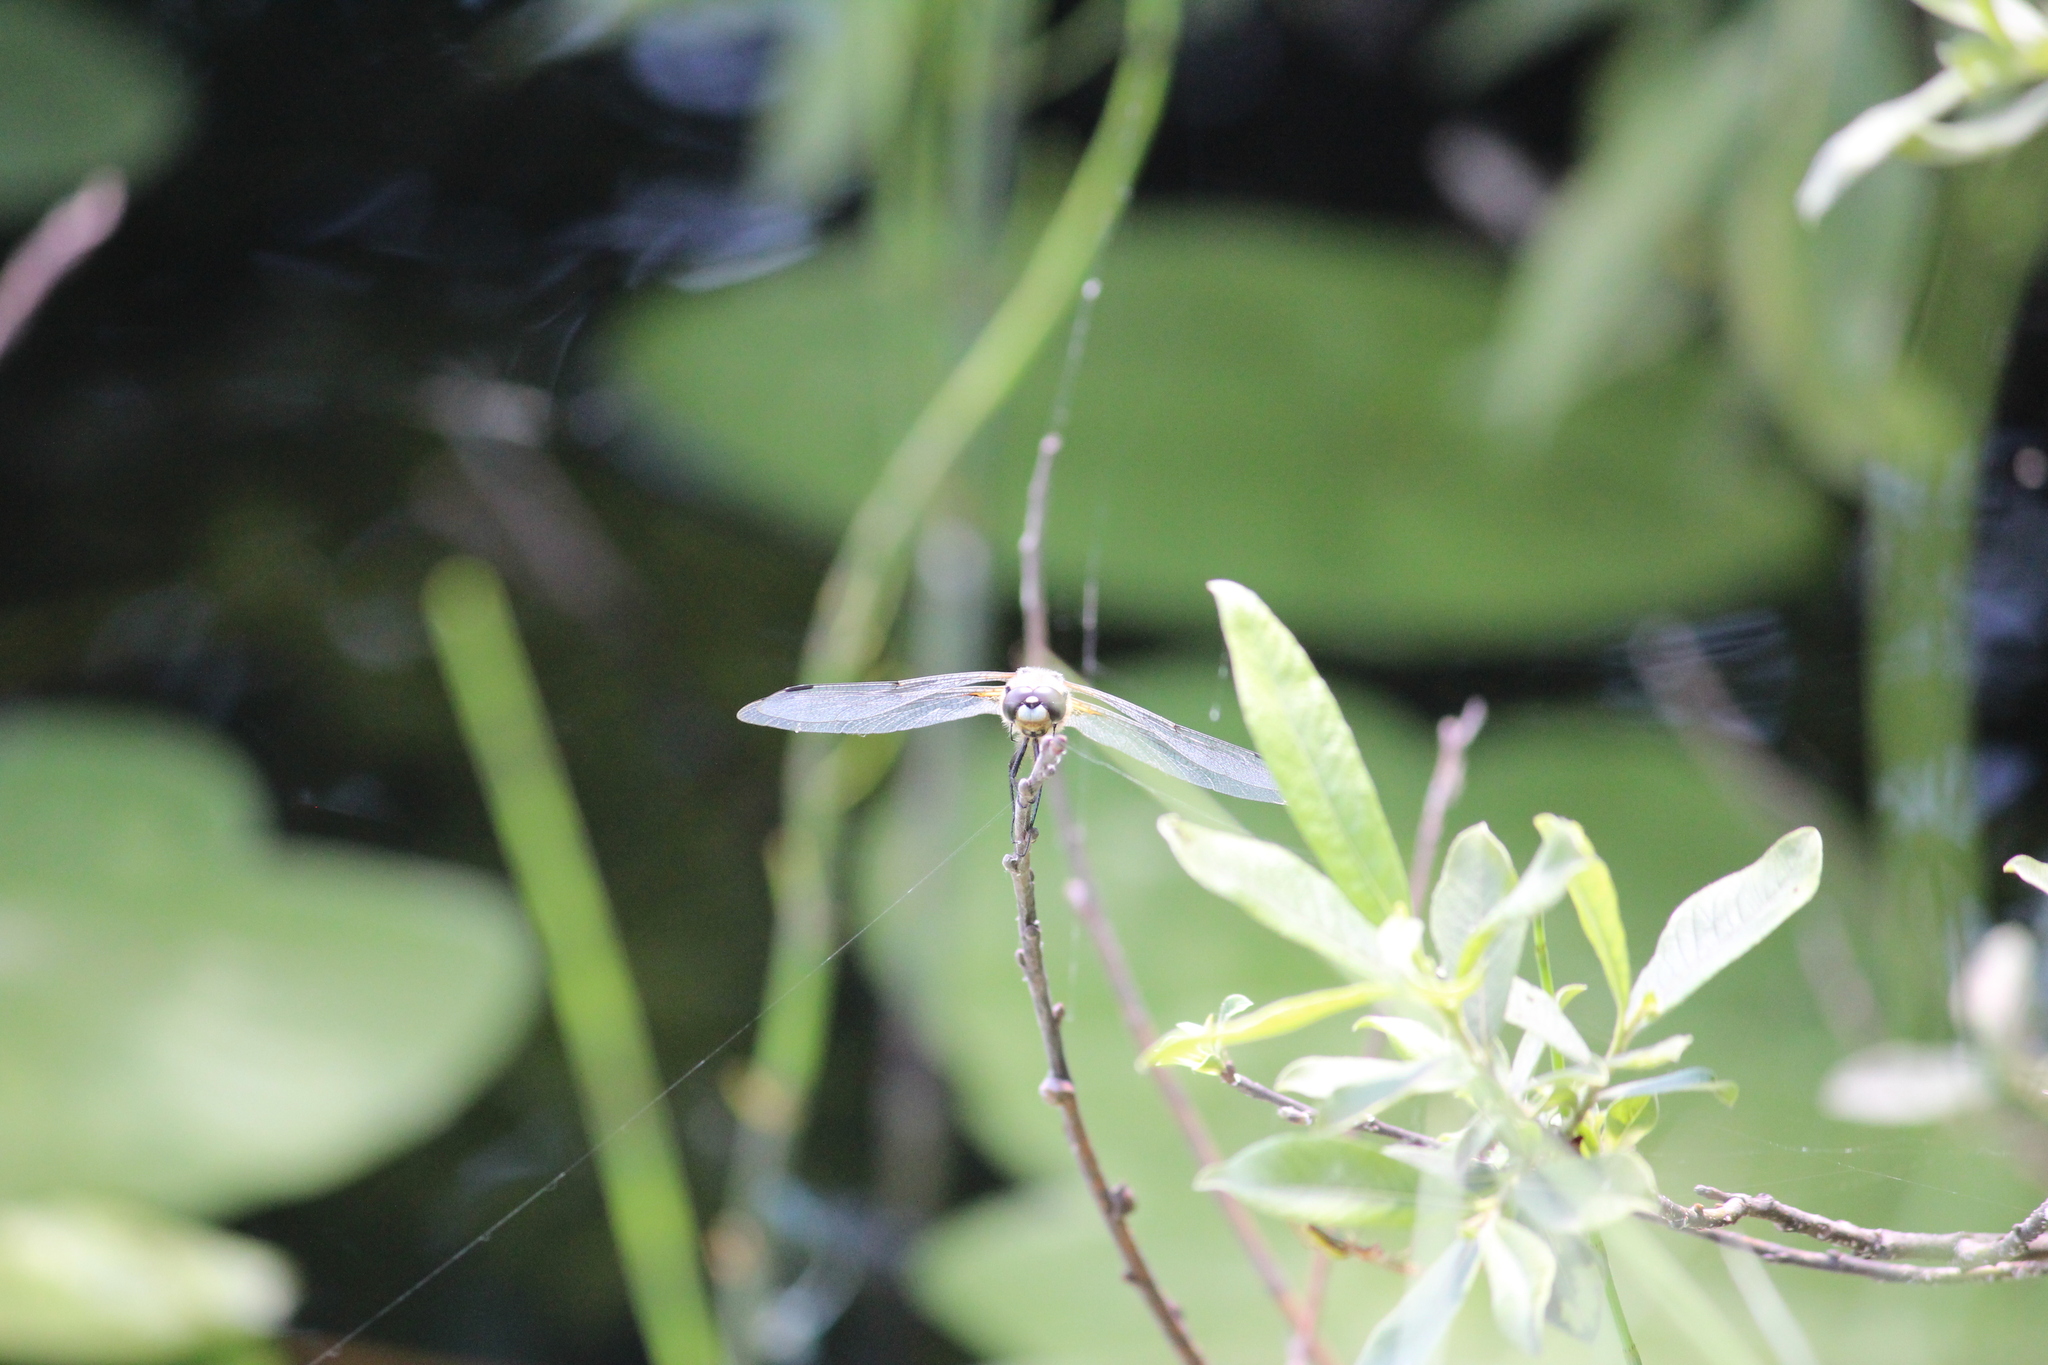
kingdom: Animalia
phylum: Arthropoda
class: Insecta
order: Odonata
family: Libellulidae
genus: Libellula
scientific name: Libellula quadrimaculata
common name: Four-spotted chaser
